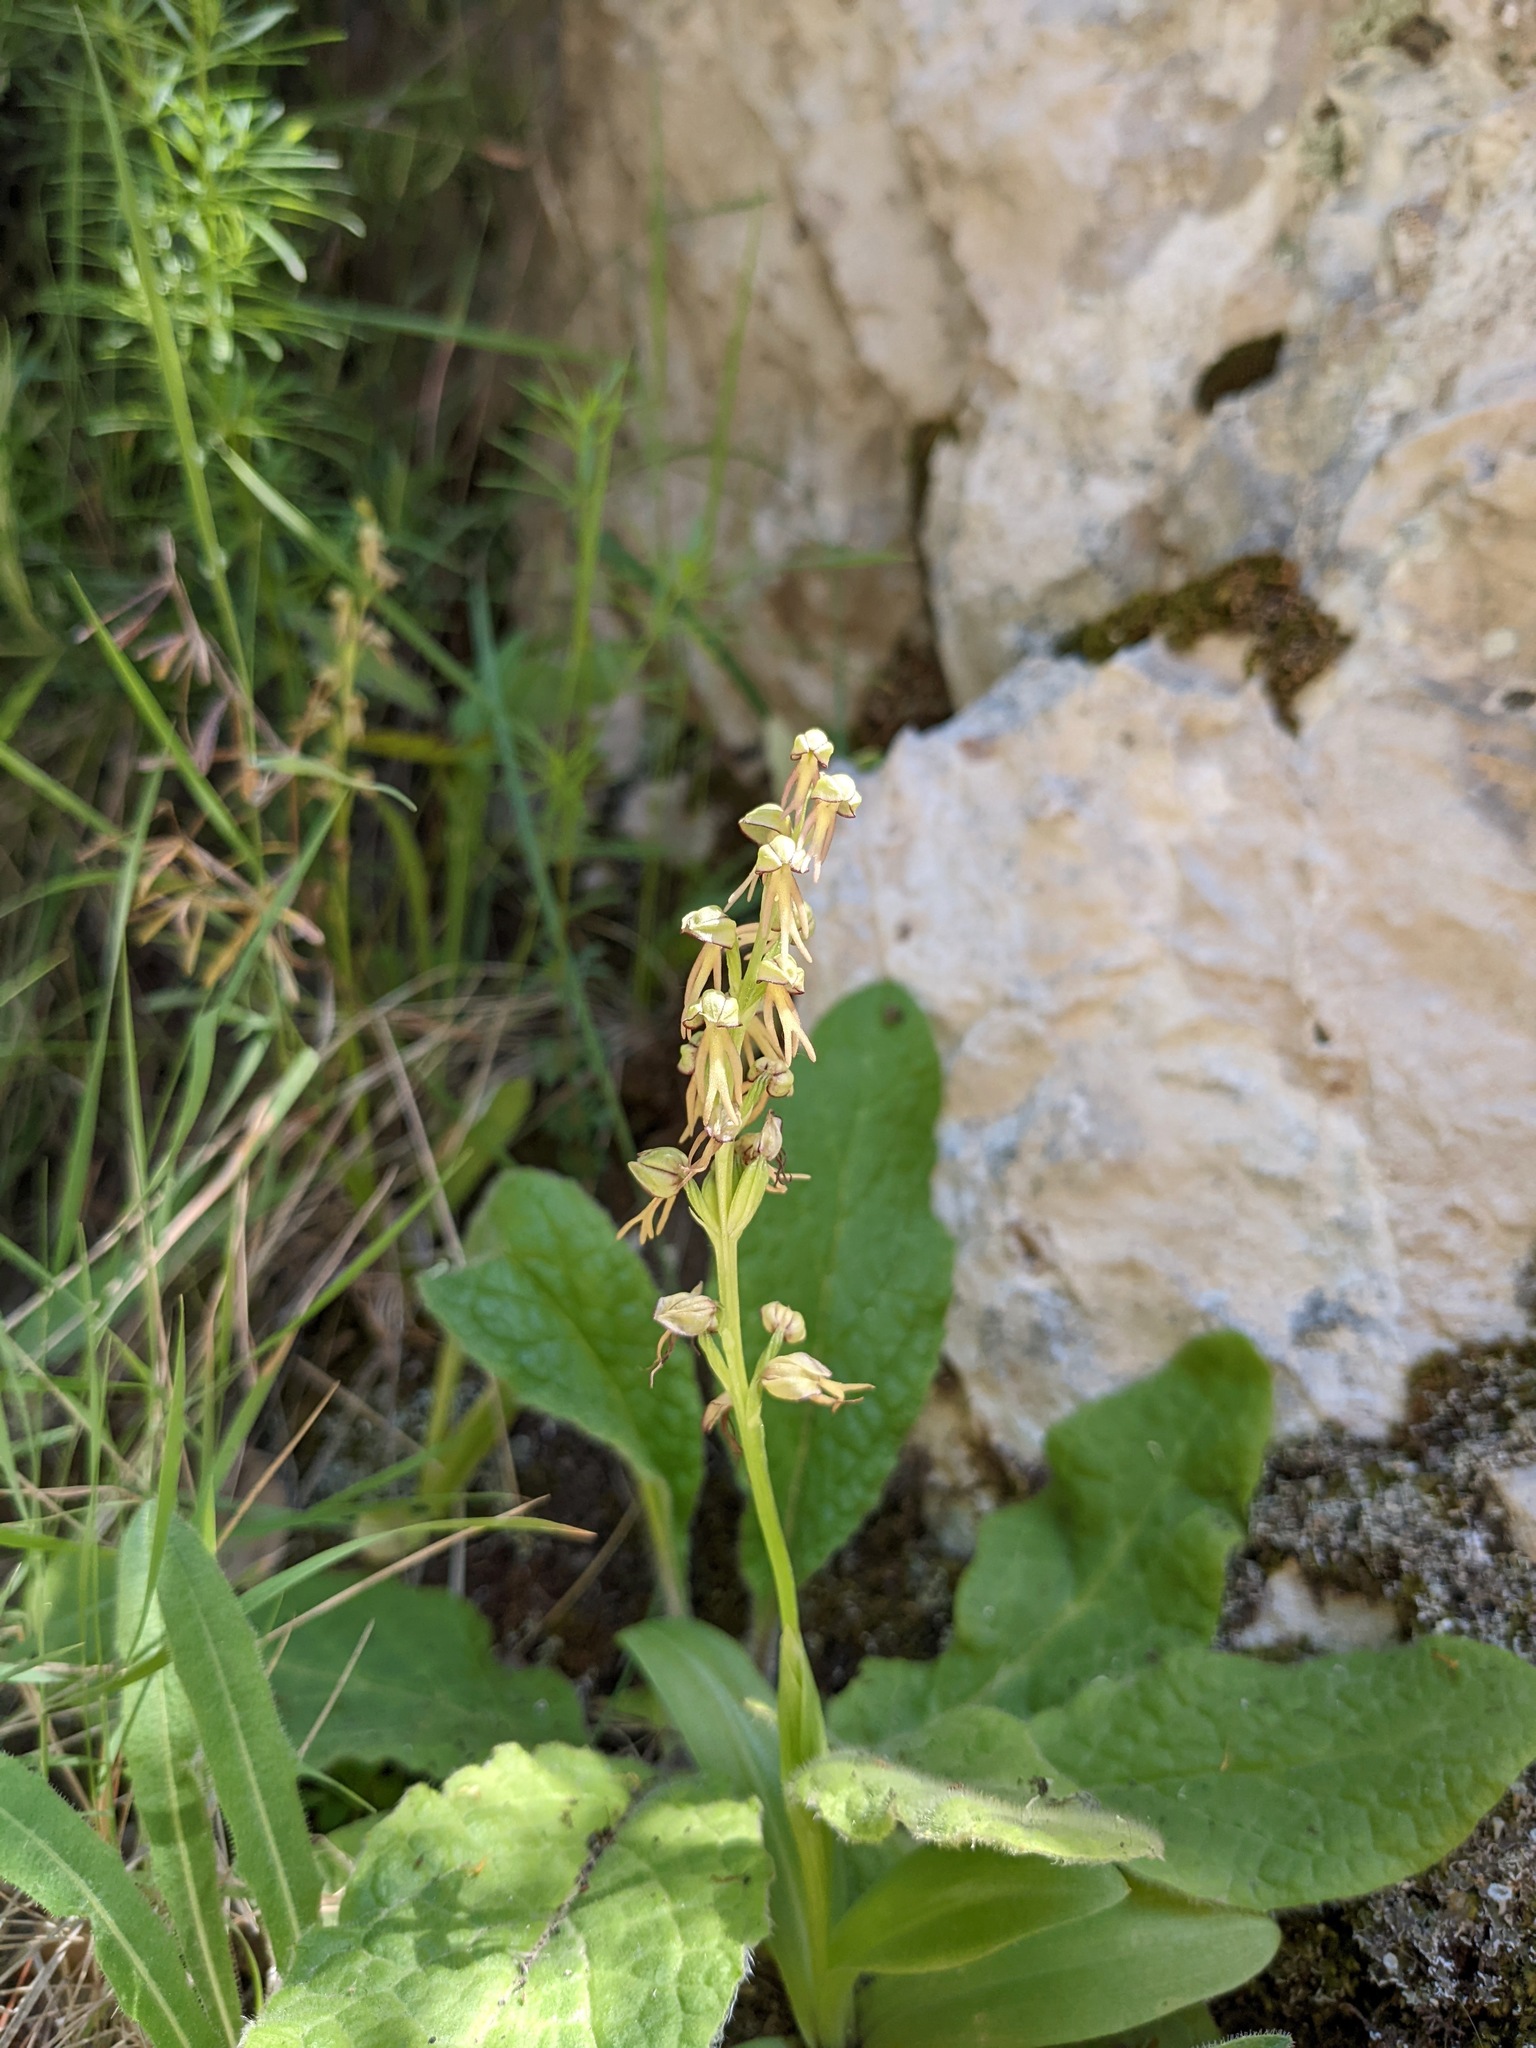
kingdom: Plantae
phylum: Tracheophyta
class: Liliopsida
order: Asparagales
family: Orchidaceae
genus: Orchis
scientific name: Orchis anthropophora
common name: Man orchid
